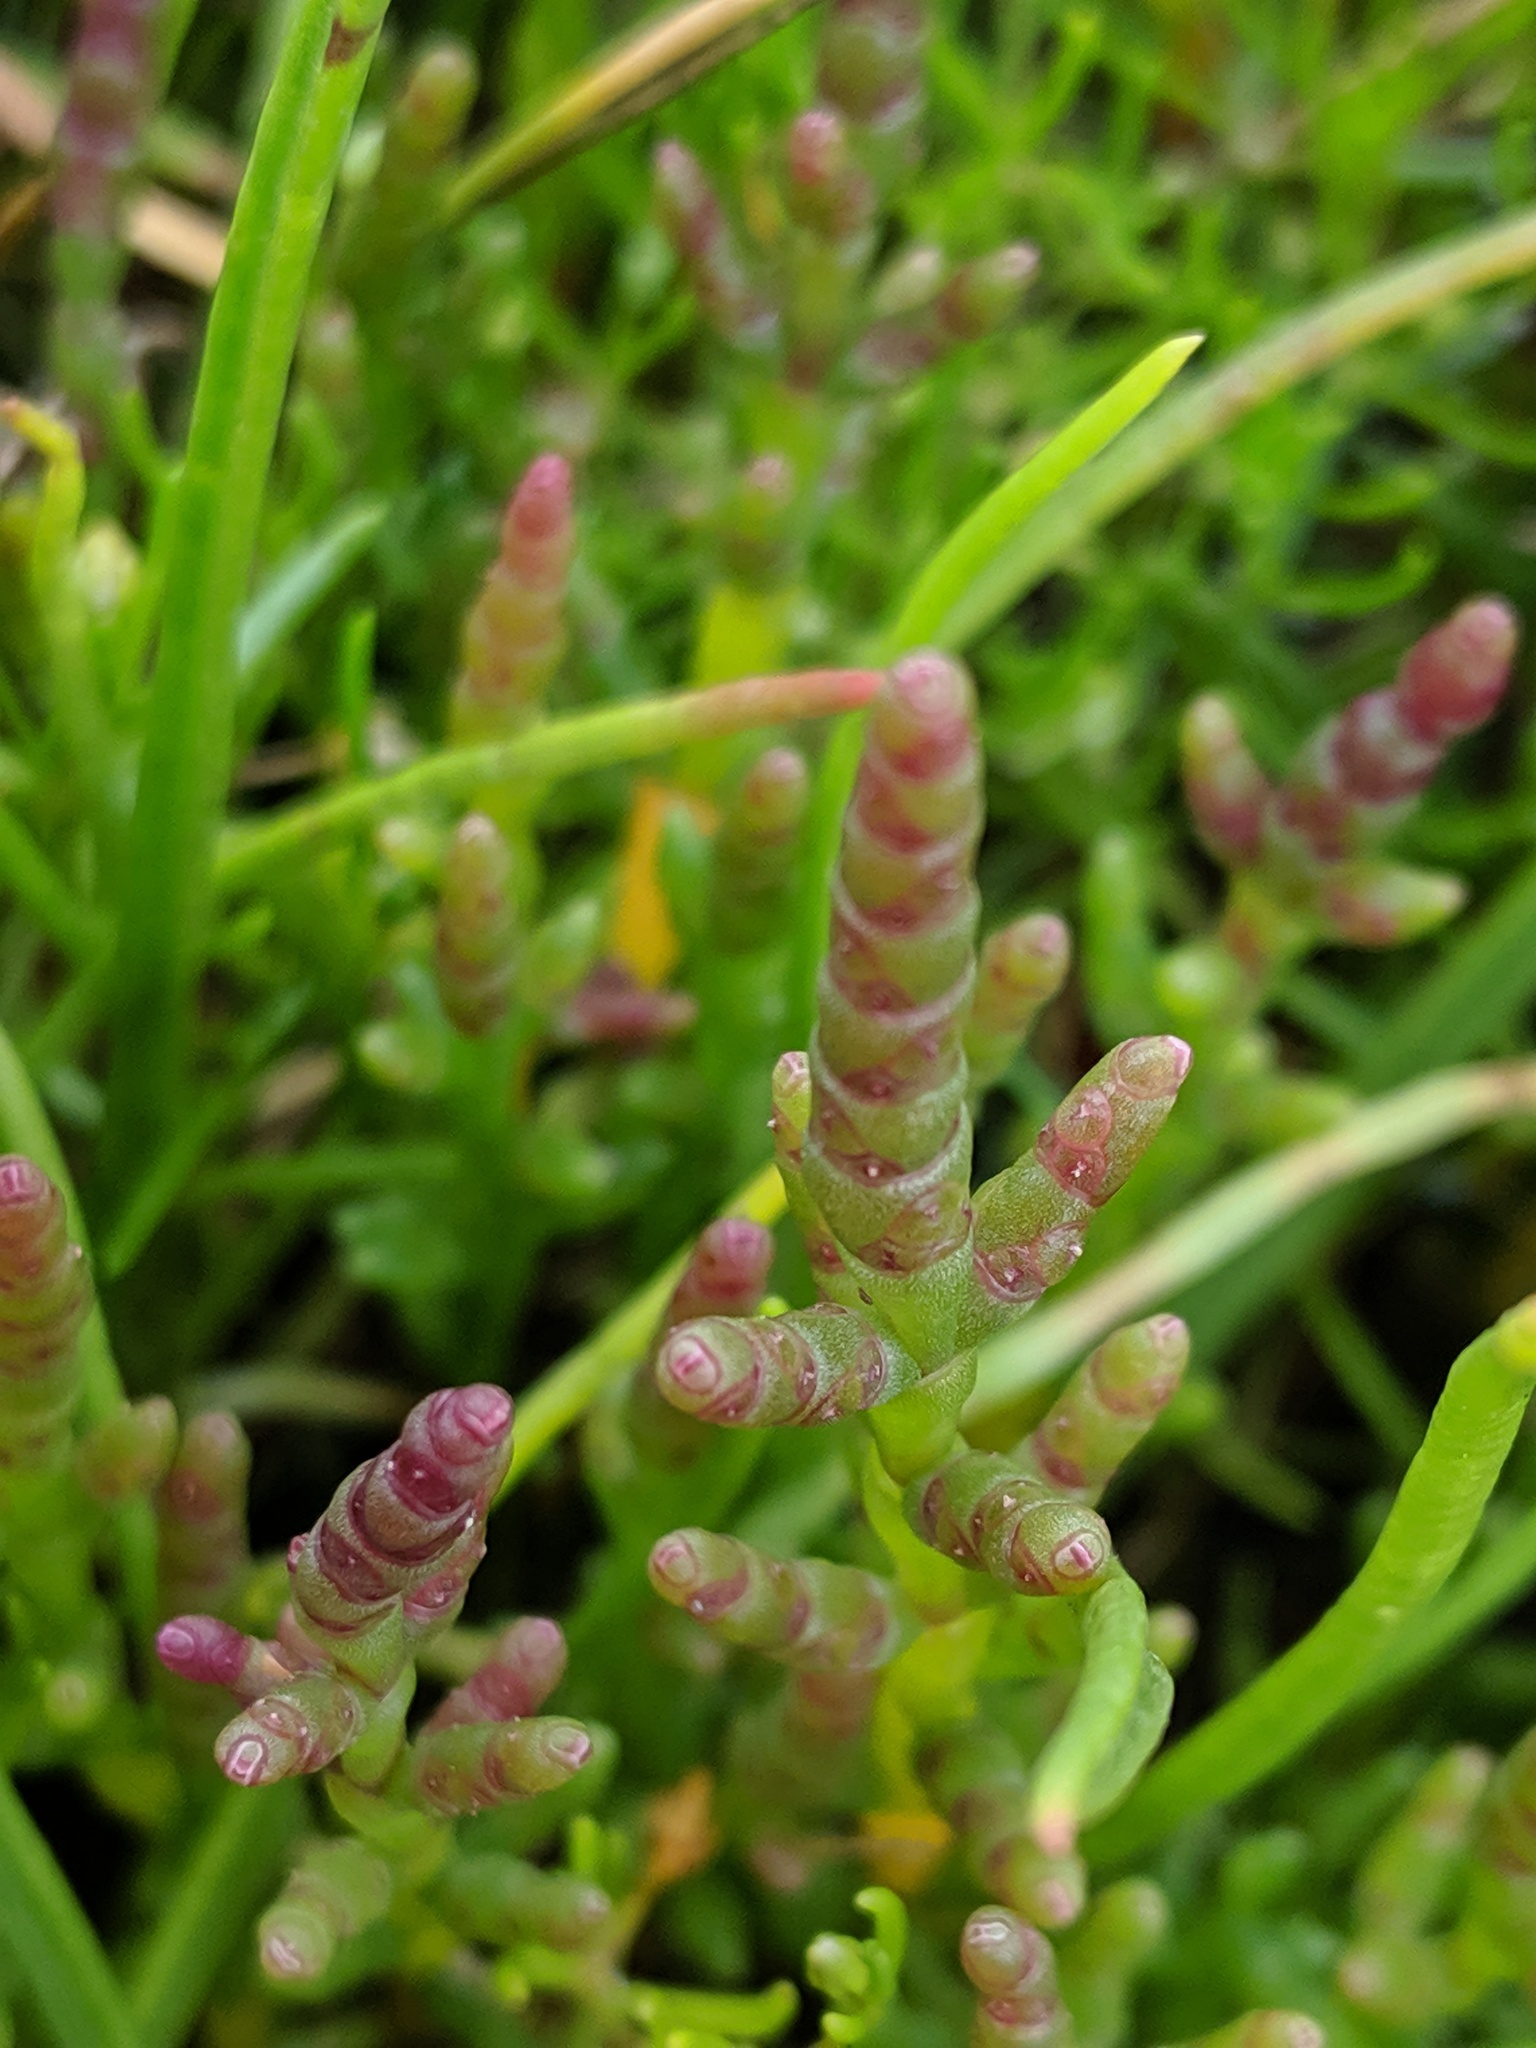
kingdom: Plantae
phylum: Tracheophyta
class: Magnoliopsida
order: Caryophyllales
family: Amaranthaceae
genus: Salicornia
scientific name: Salicornia virginica
